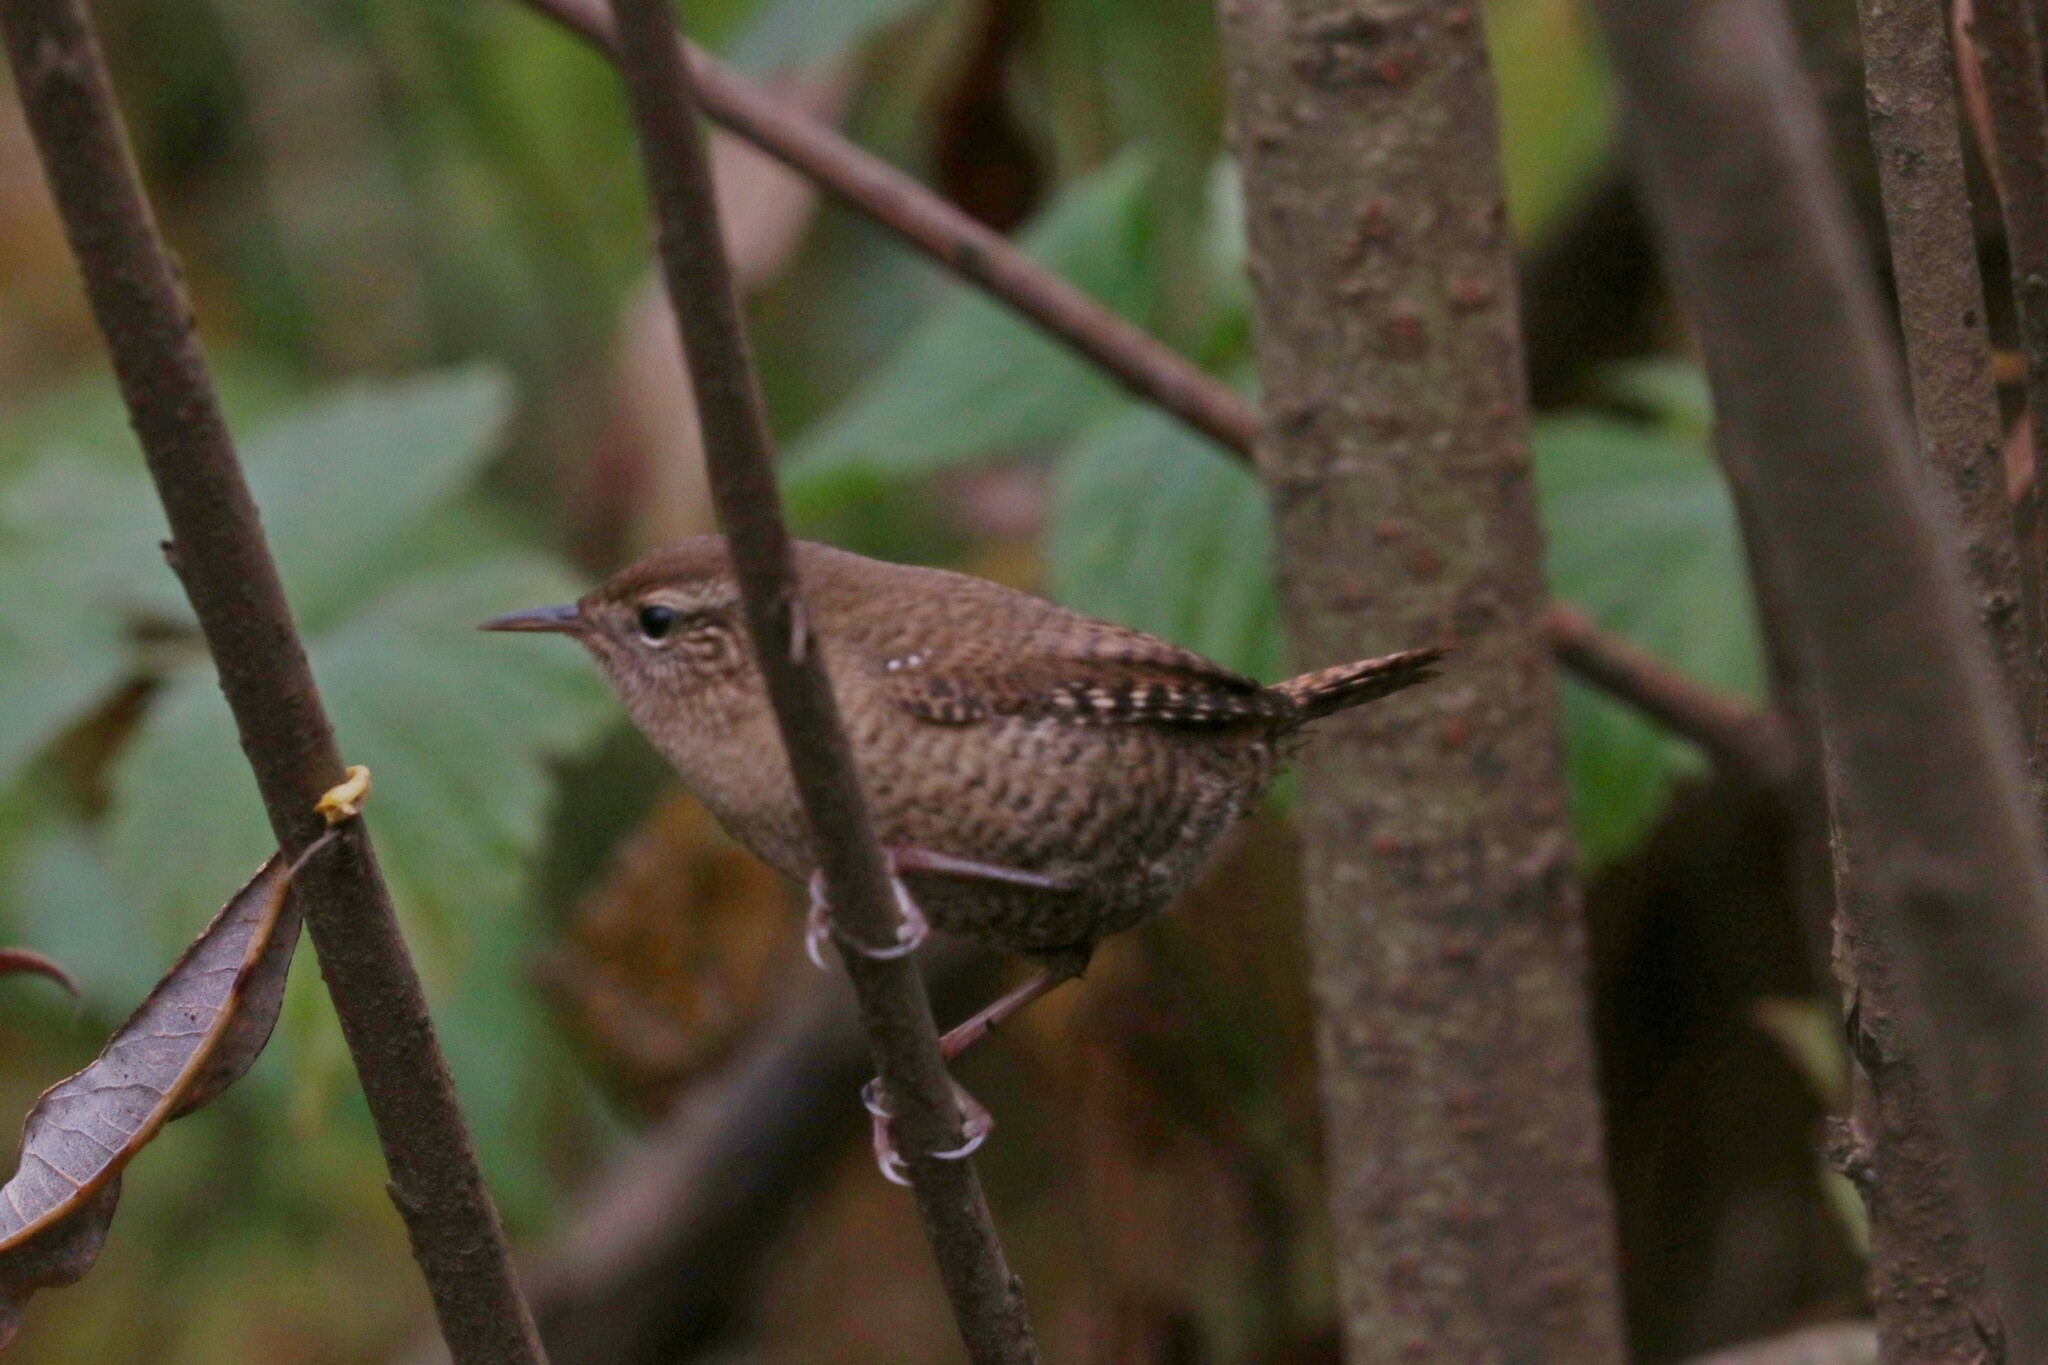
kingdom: Animalia
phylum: Chordata
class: Aves
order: Passeriformes
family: Troglodytidae
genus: Troglodytes
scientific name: Troglodytes troglodytes
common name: Eurasian wren
